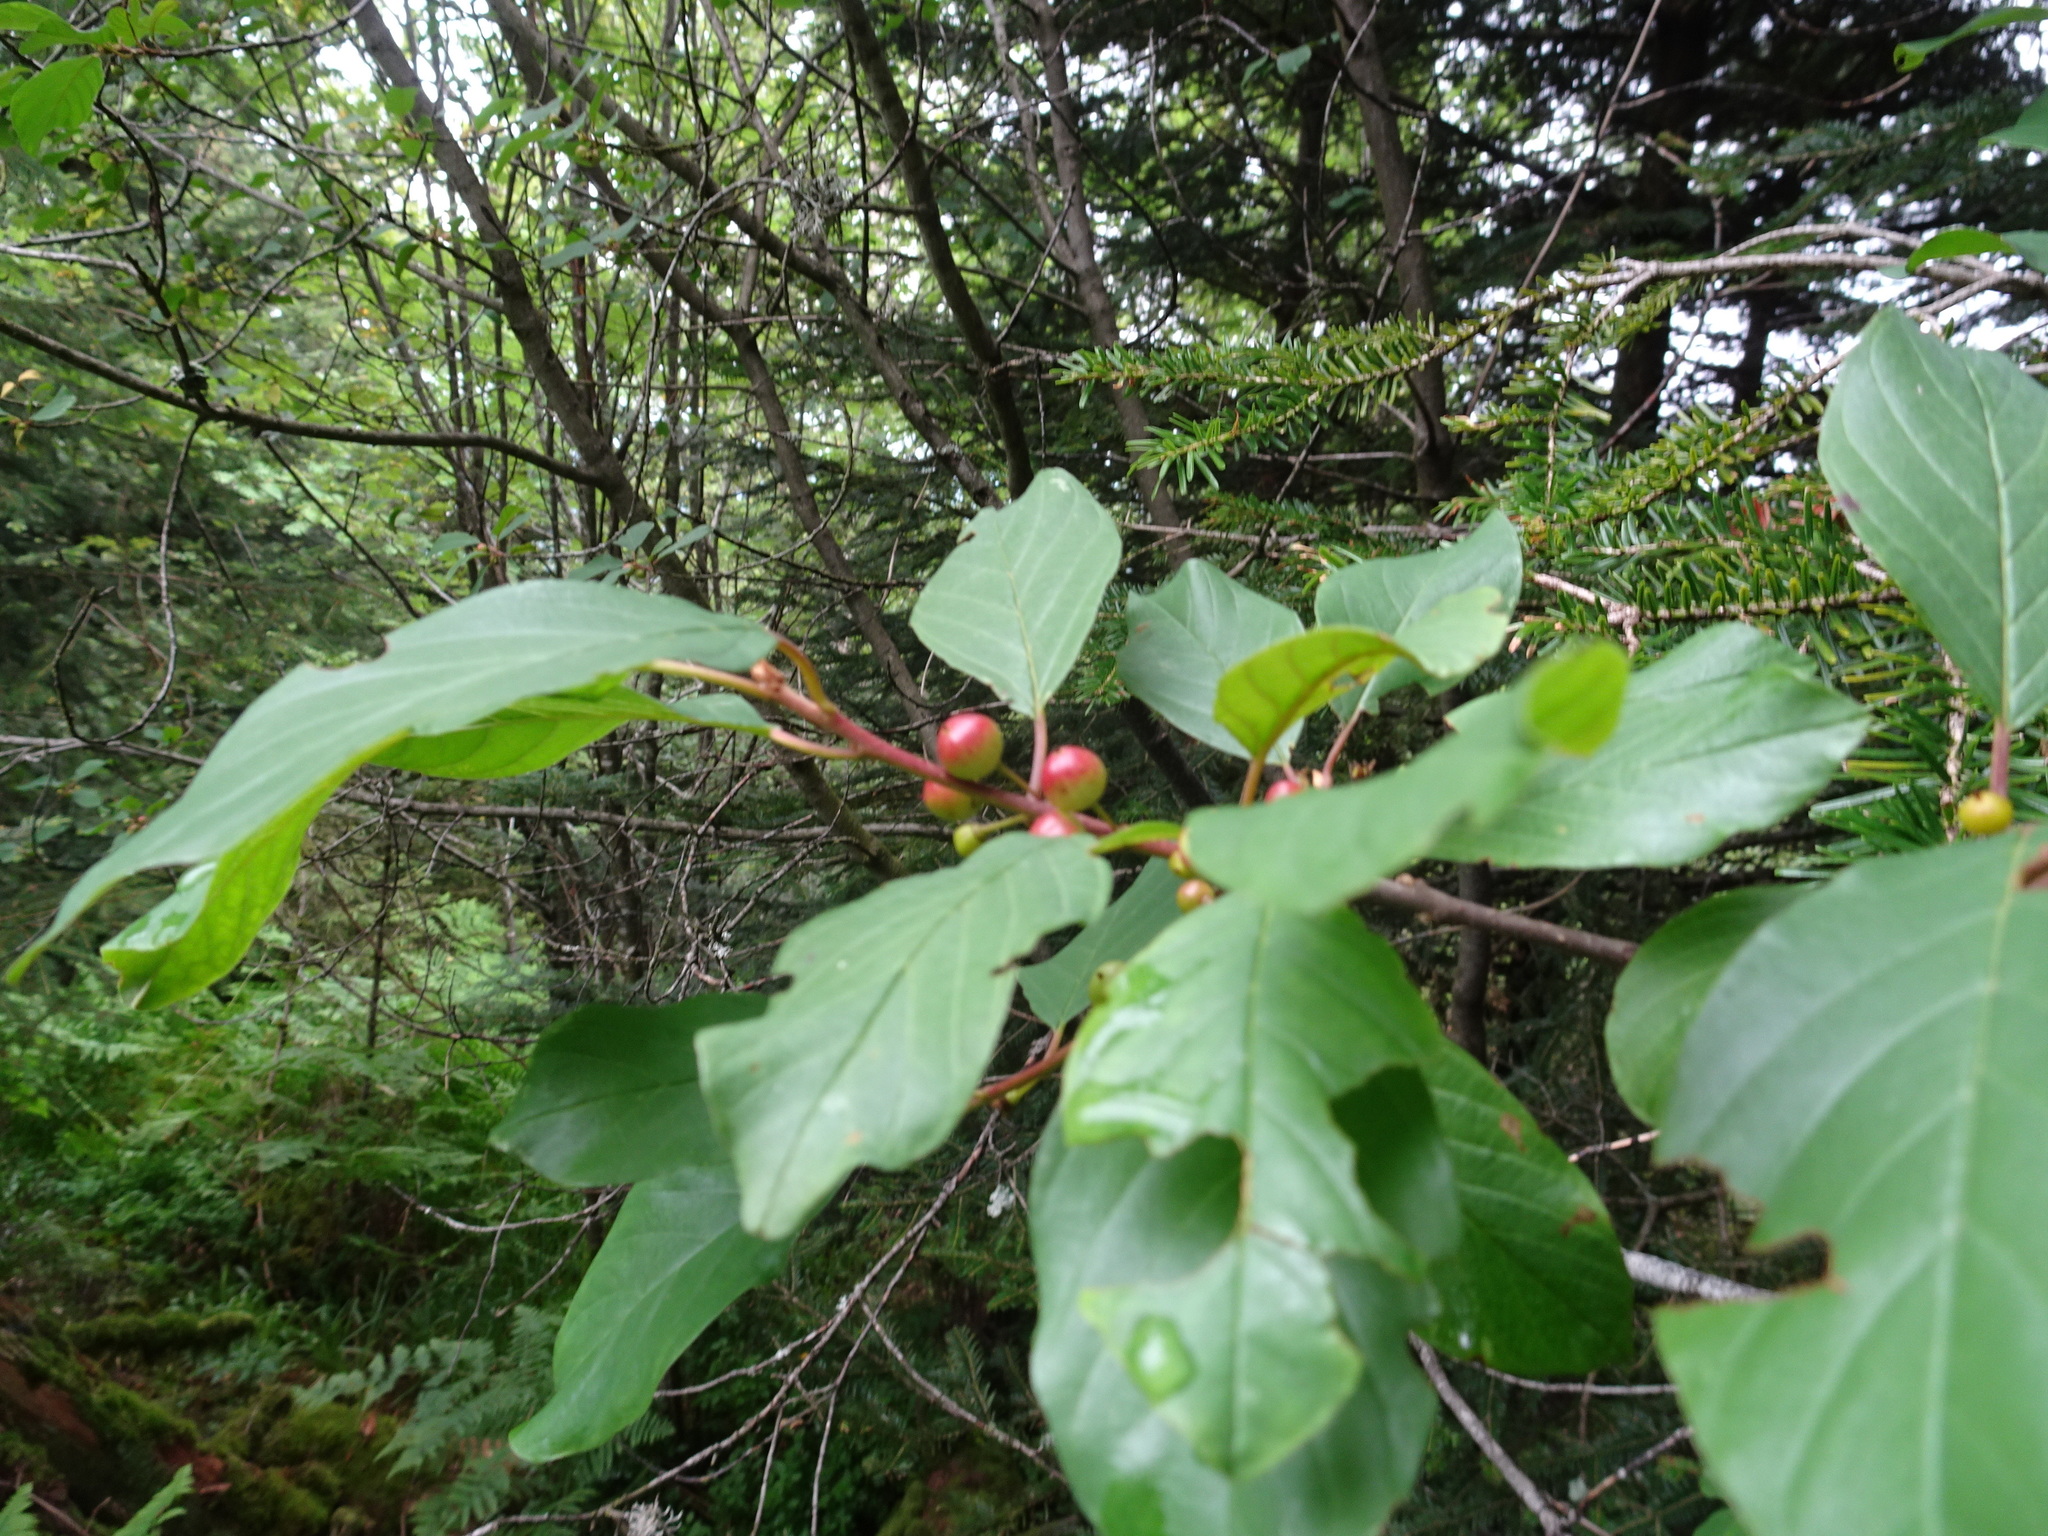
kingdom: Plantae
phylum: Tracheophyta
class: Magnoliopsida
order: Rosales
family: Rhamnaceae
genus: Frangula
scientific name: Frangula alnus
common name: Alder buckthorn
